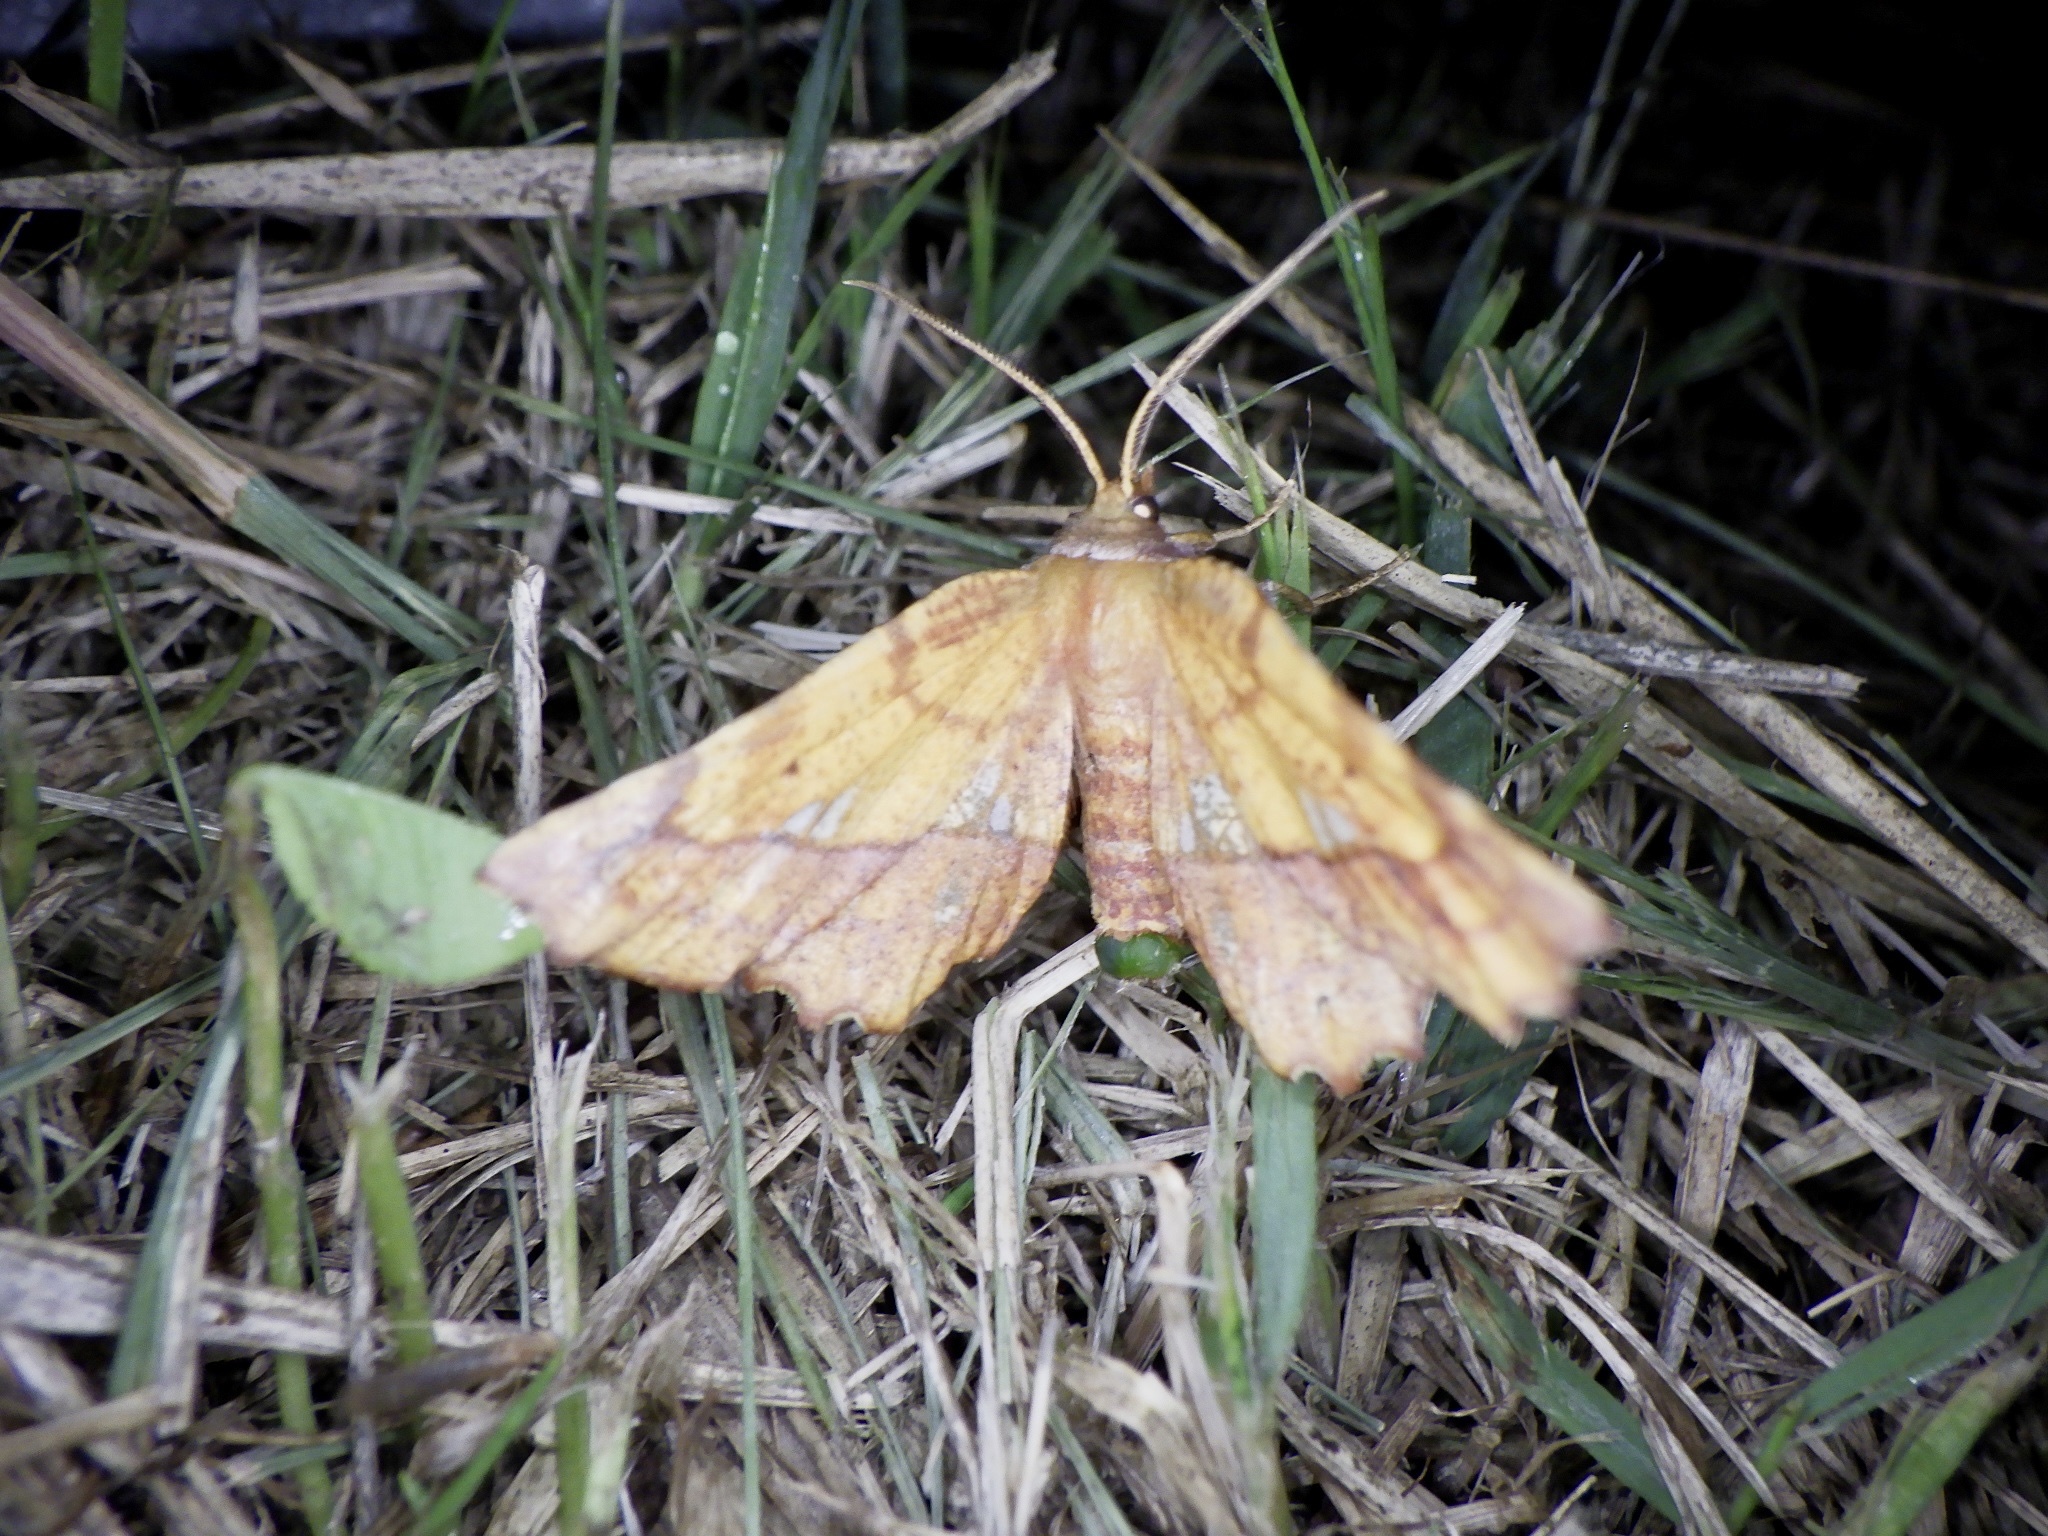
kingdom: Animalia
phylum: Arthropoda
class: Insecta
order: Lepidoptera
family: Geometridae
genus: Garaeus
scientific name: Garaeus specularis
